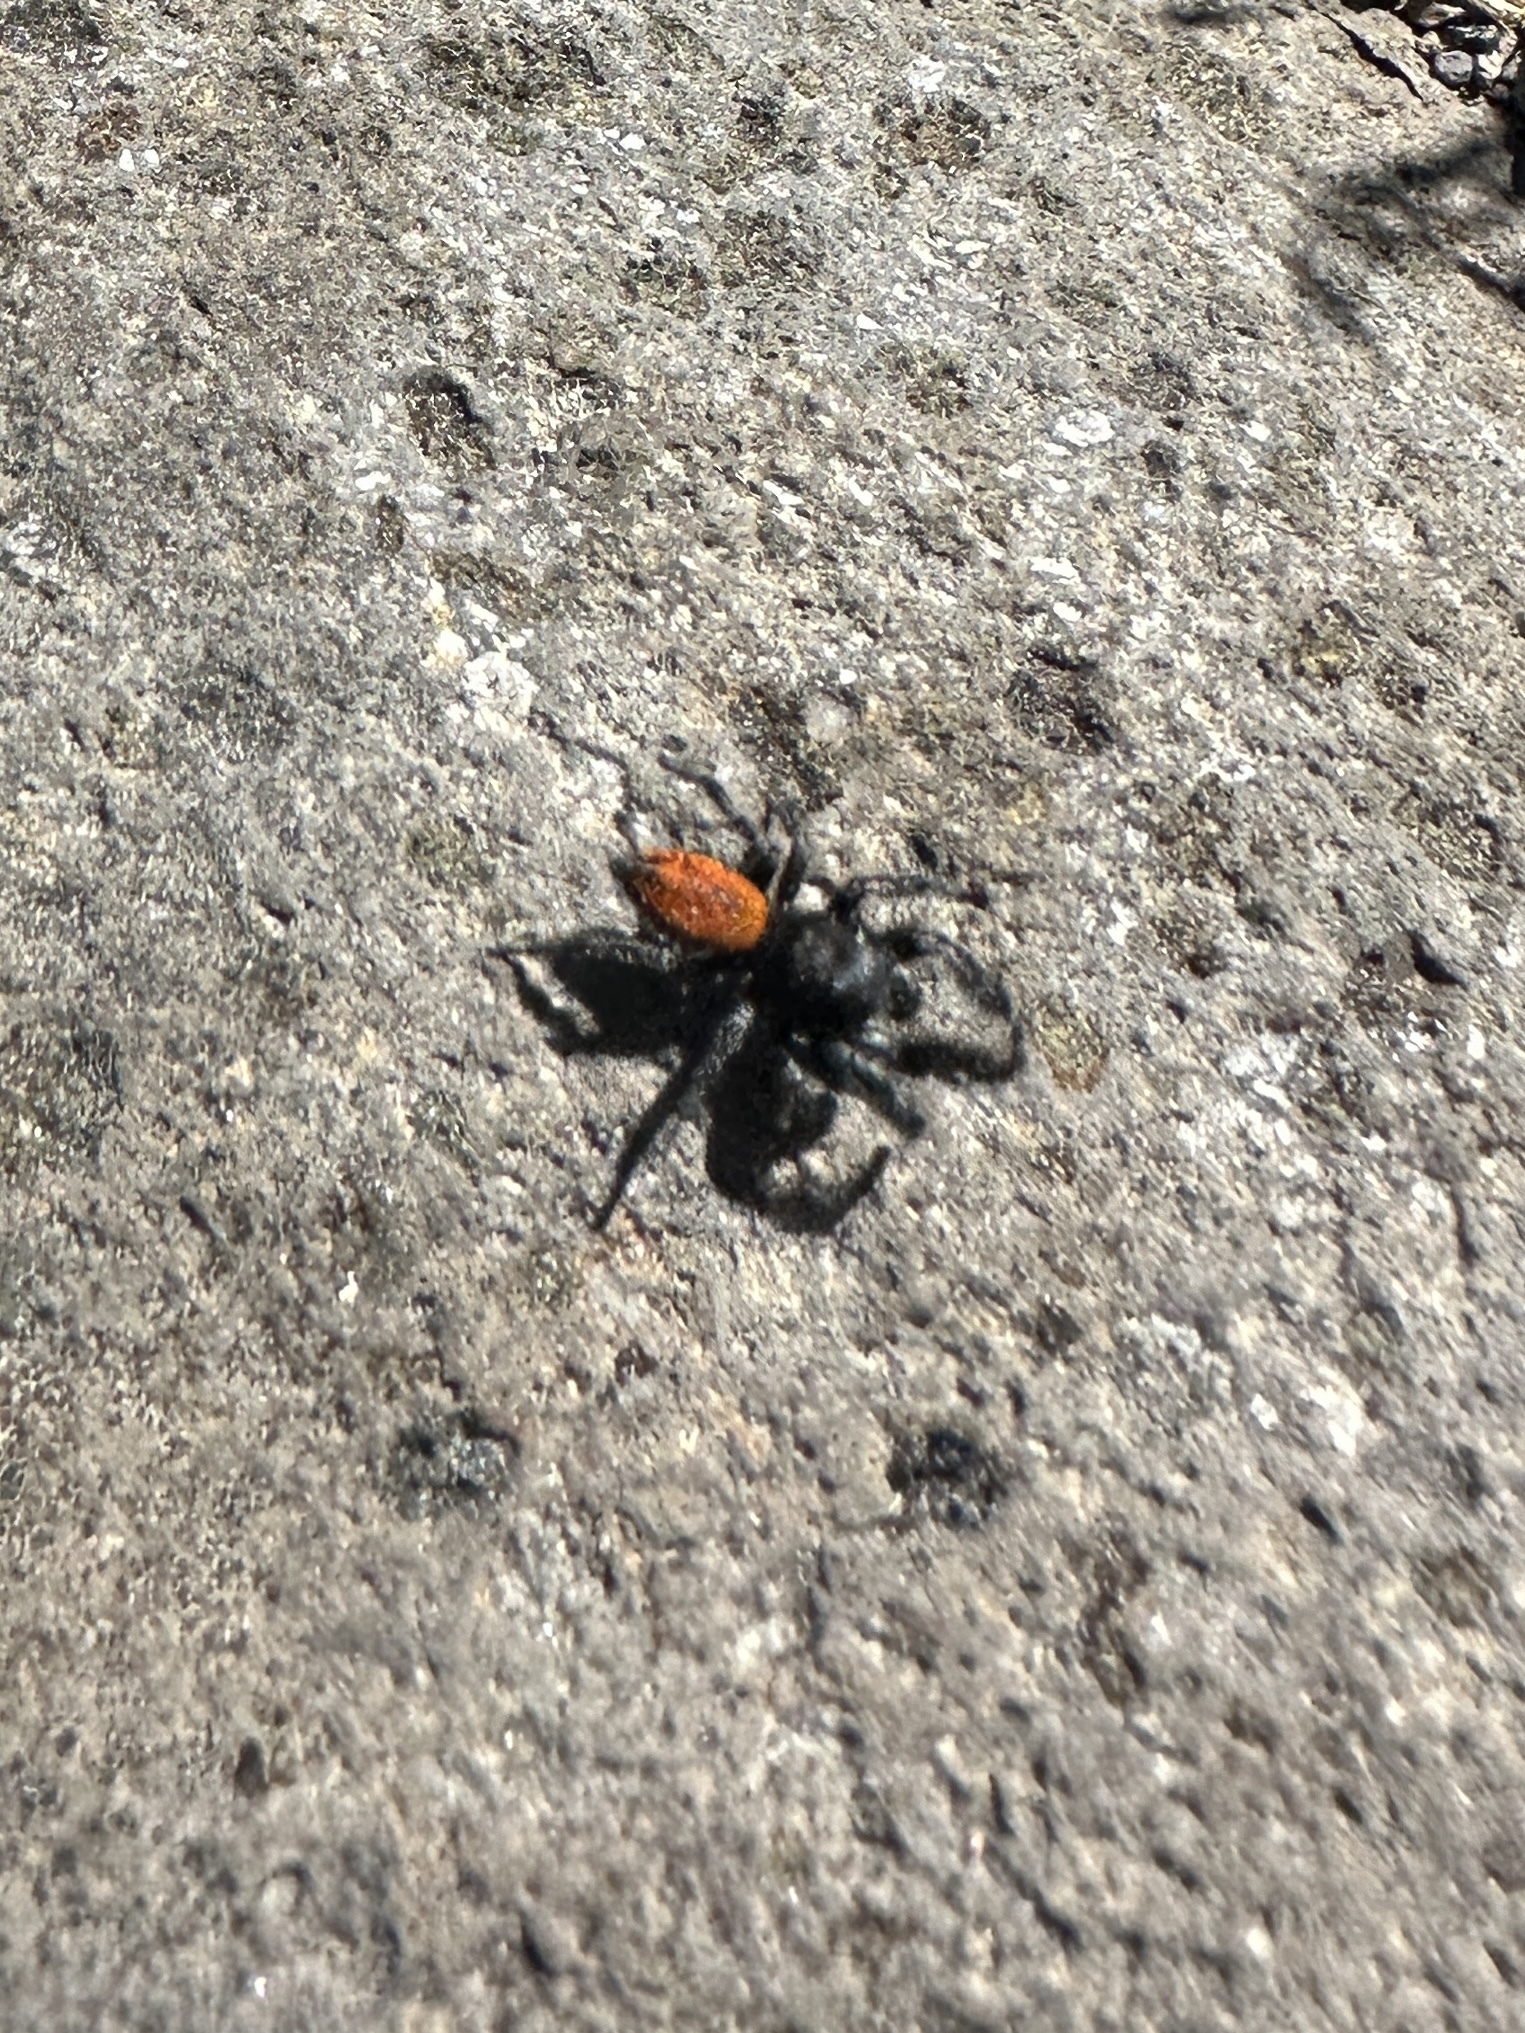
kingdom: Animalia
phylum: Arthropoda
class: Arachnida
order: Araneae
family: Salticidae
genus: Phidippus
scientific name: Phidippus johnsoni
